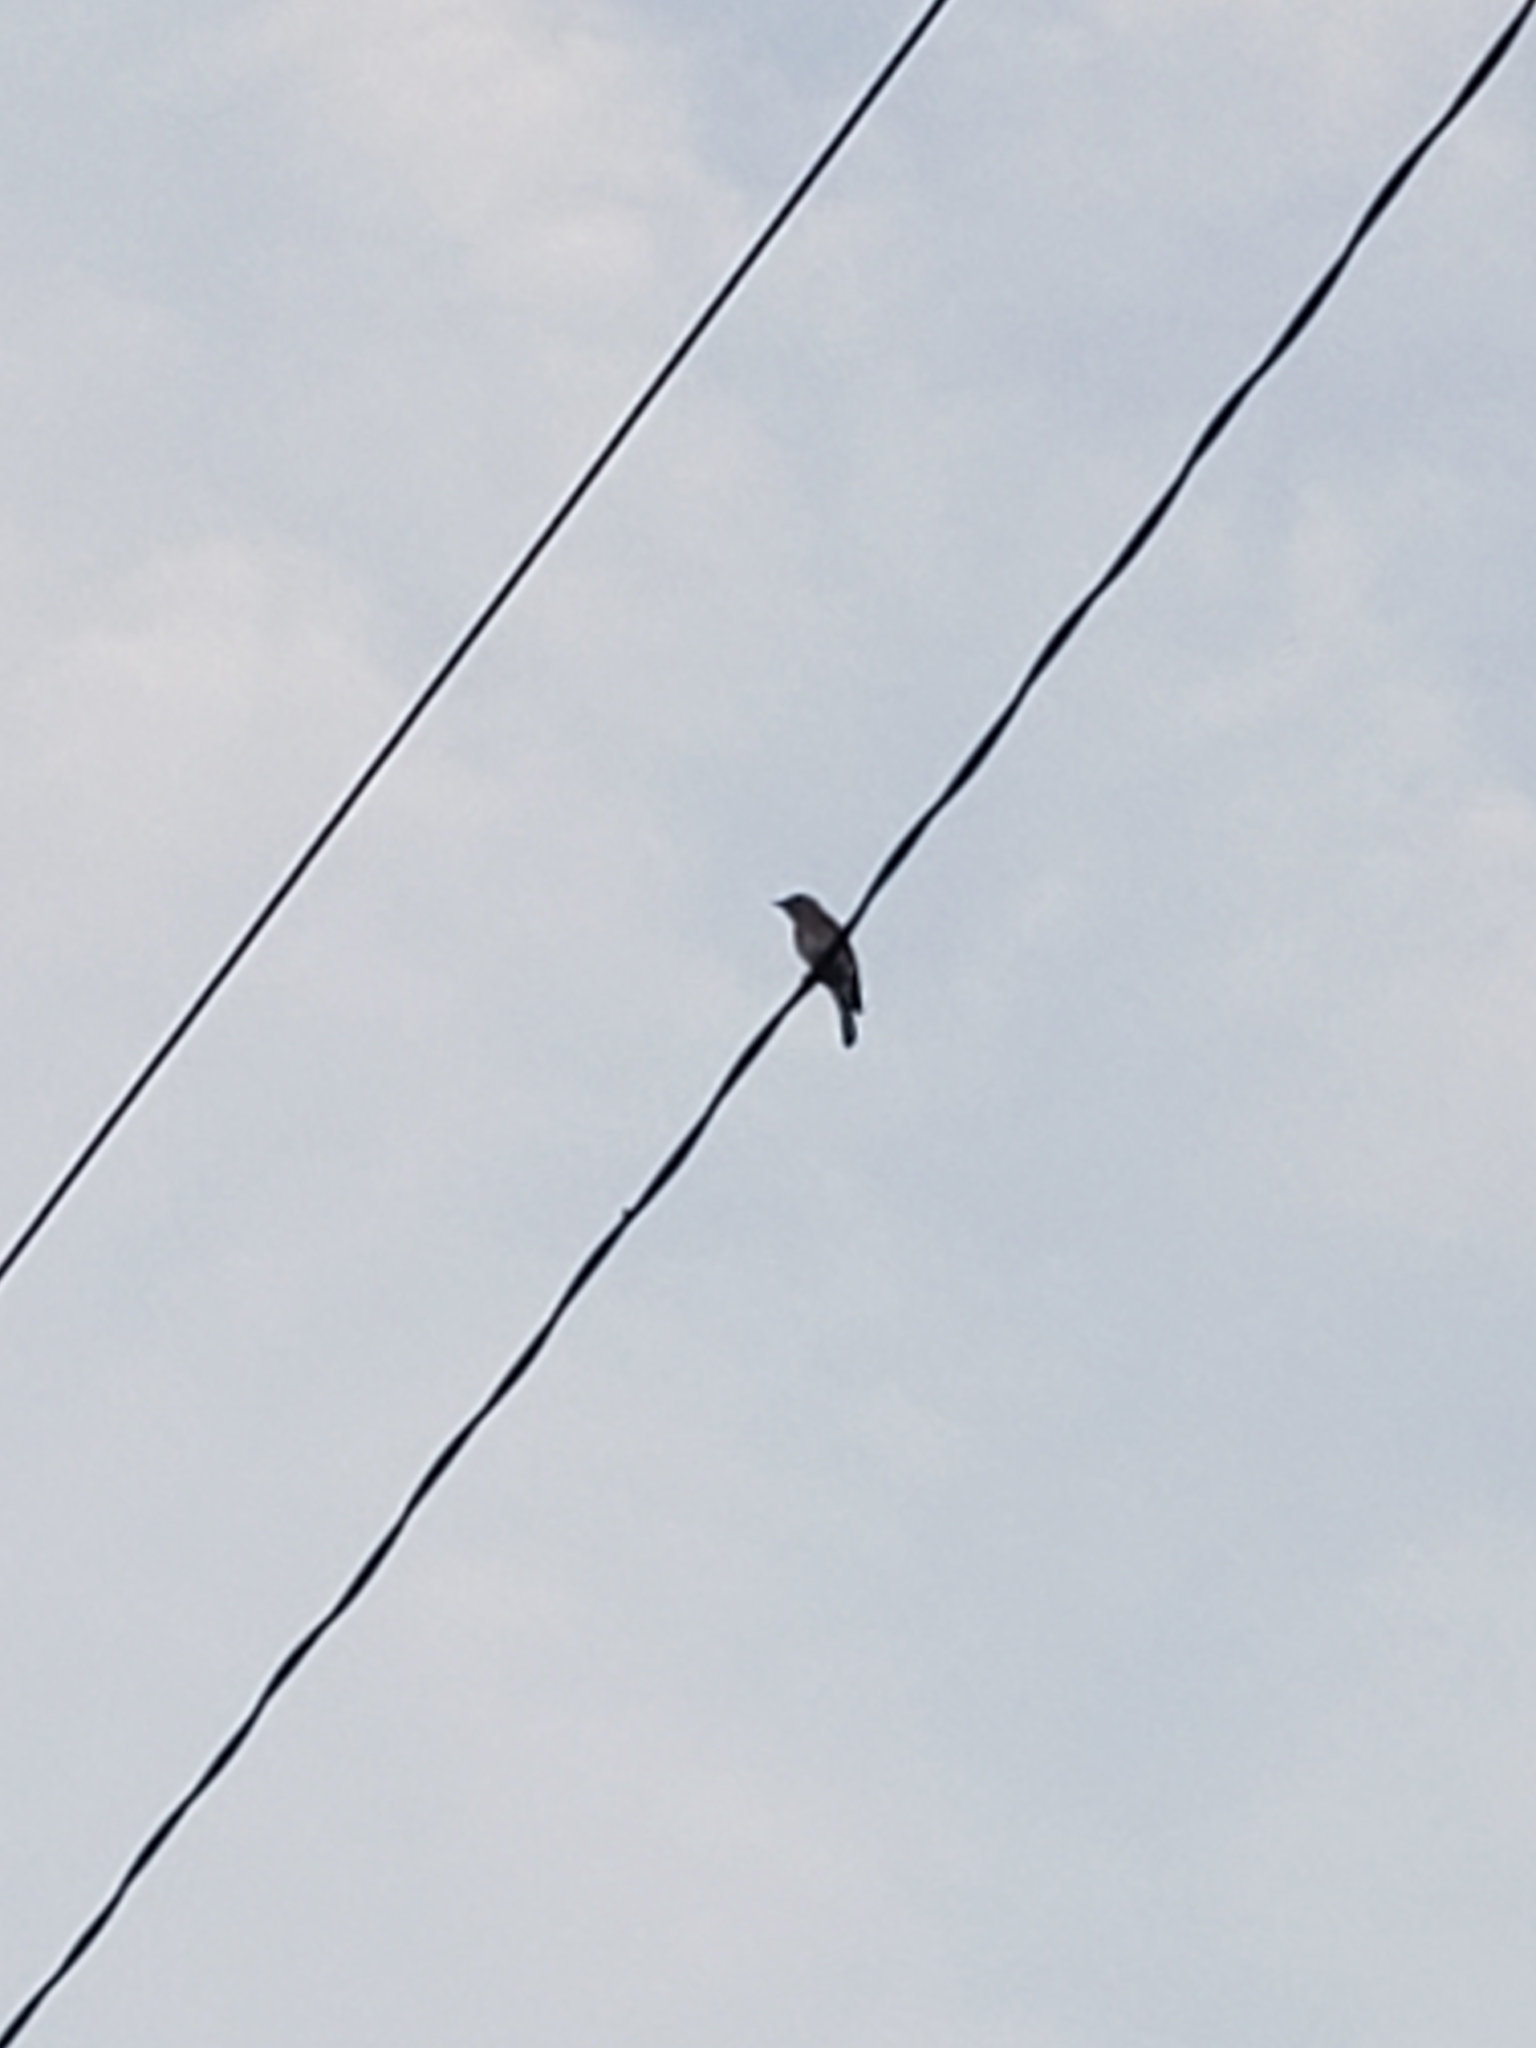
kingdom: Animalia
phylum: Chordata
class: Aves
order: Passeriformes
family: Turdidae
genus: Sialia
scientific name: Sialia sialis
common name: Eastern bluebird
